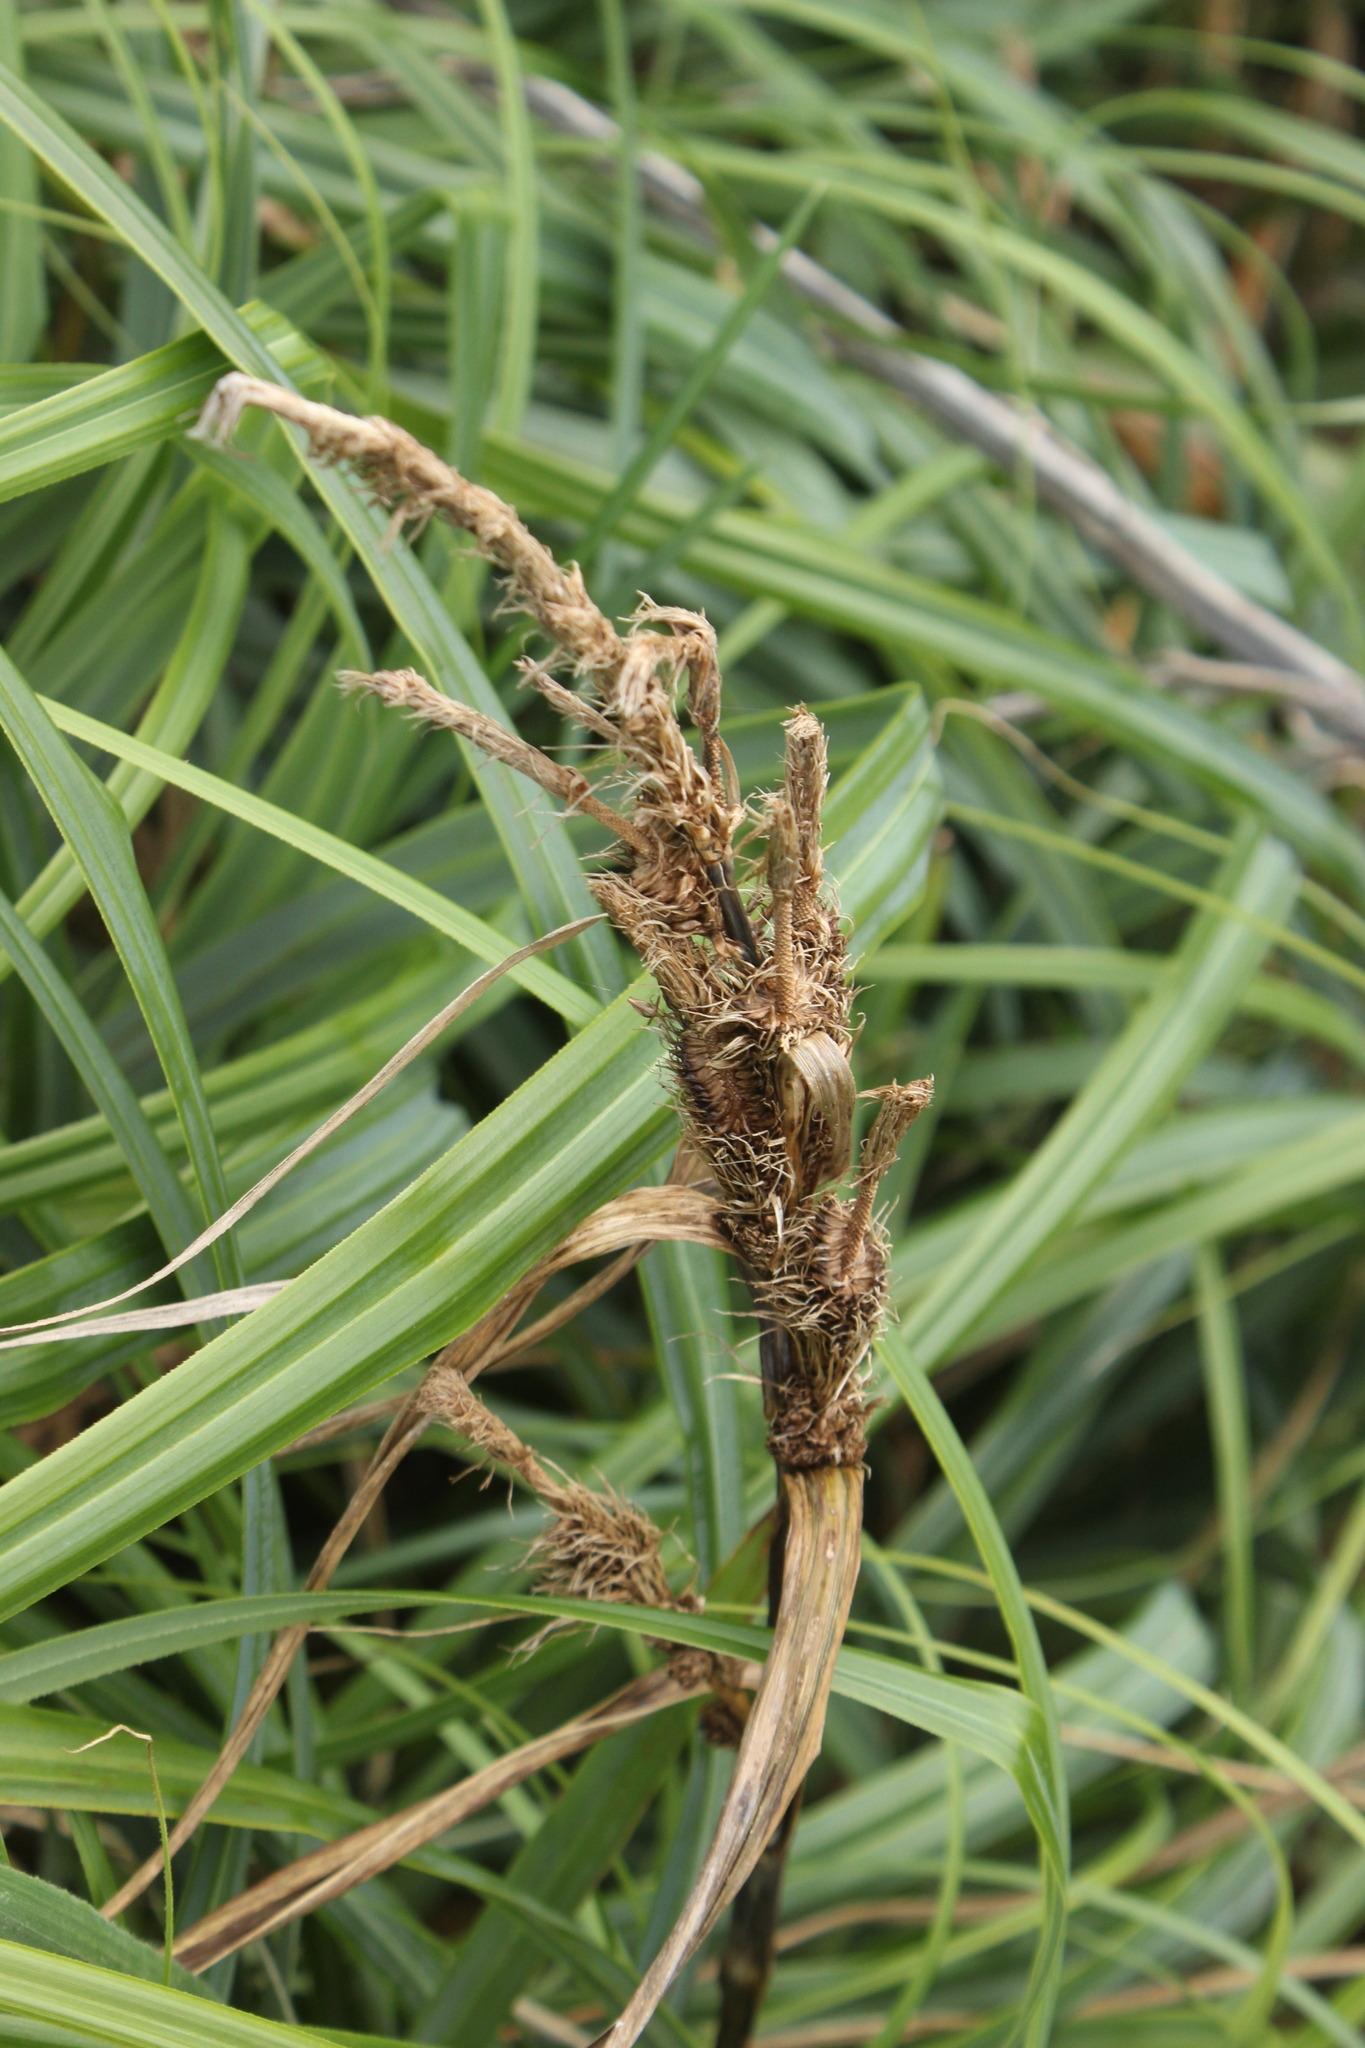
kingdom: Plantae
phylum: Tracheophyta
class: Liliopsida
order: Poales
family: Cyperaceae
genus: Carex
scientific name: Carex trifida
